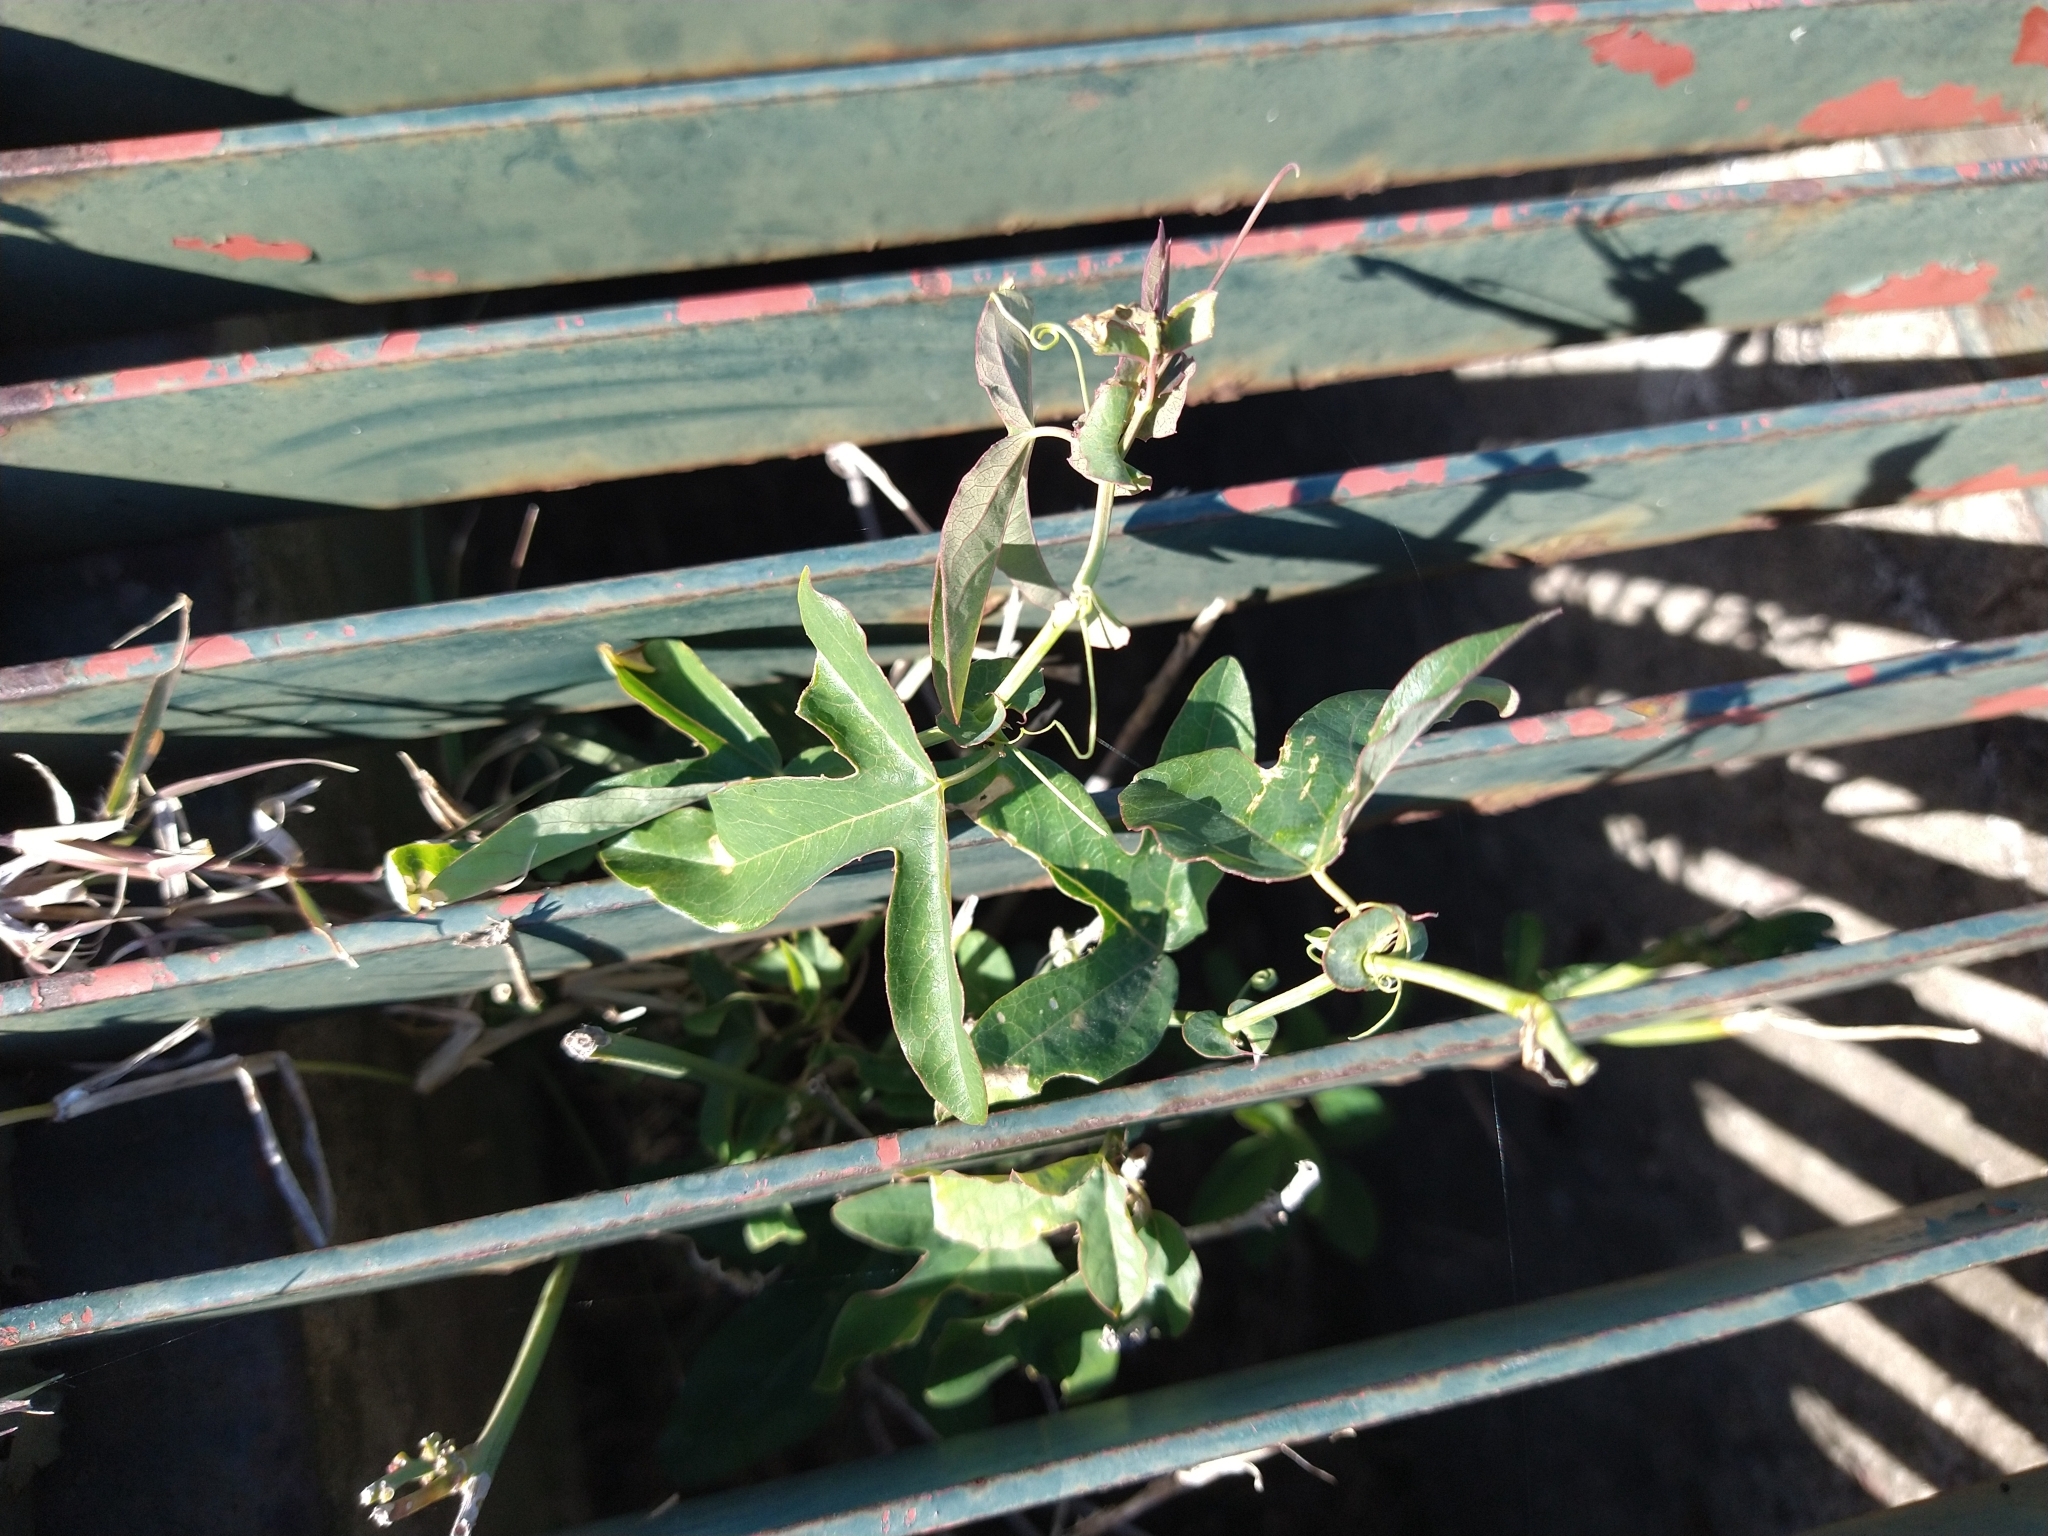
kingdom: Plantae
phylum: Tracheophyta
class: Magnoliopsida
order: Malpighiales
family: Passifloraceae
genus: Passiflora
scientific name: Passiflora caerulea
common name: Blue passionflower
